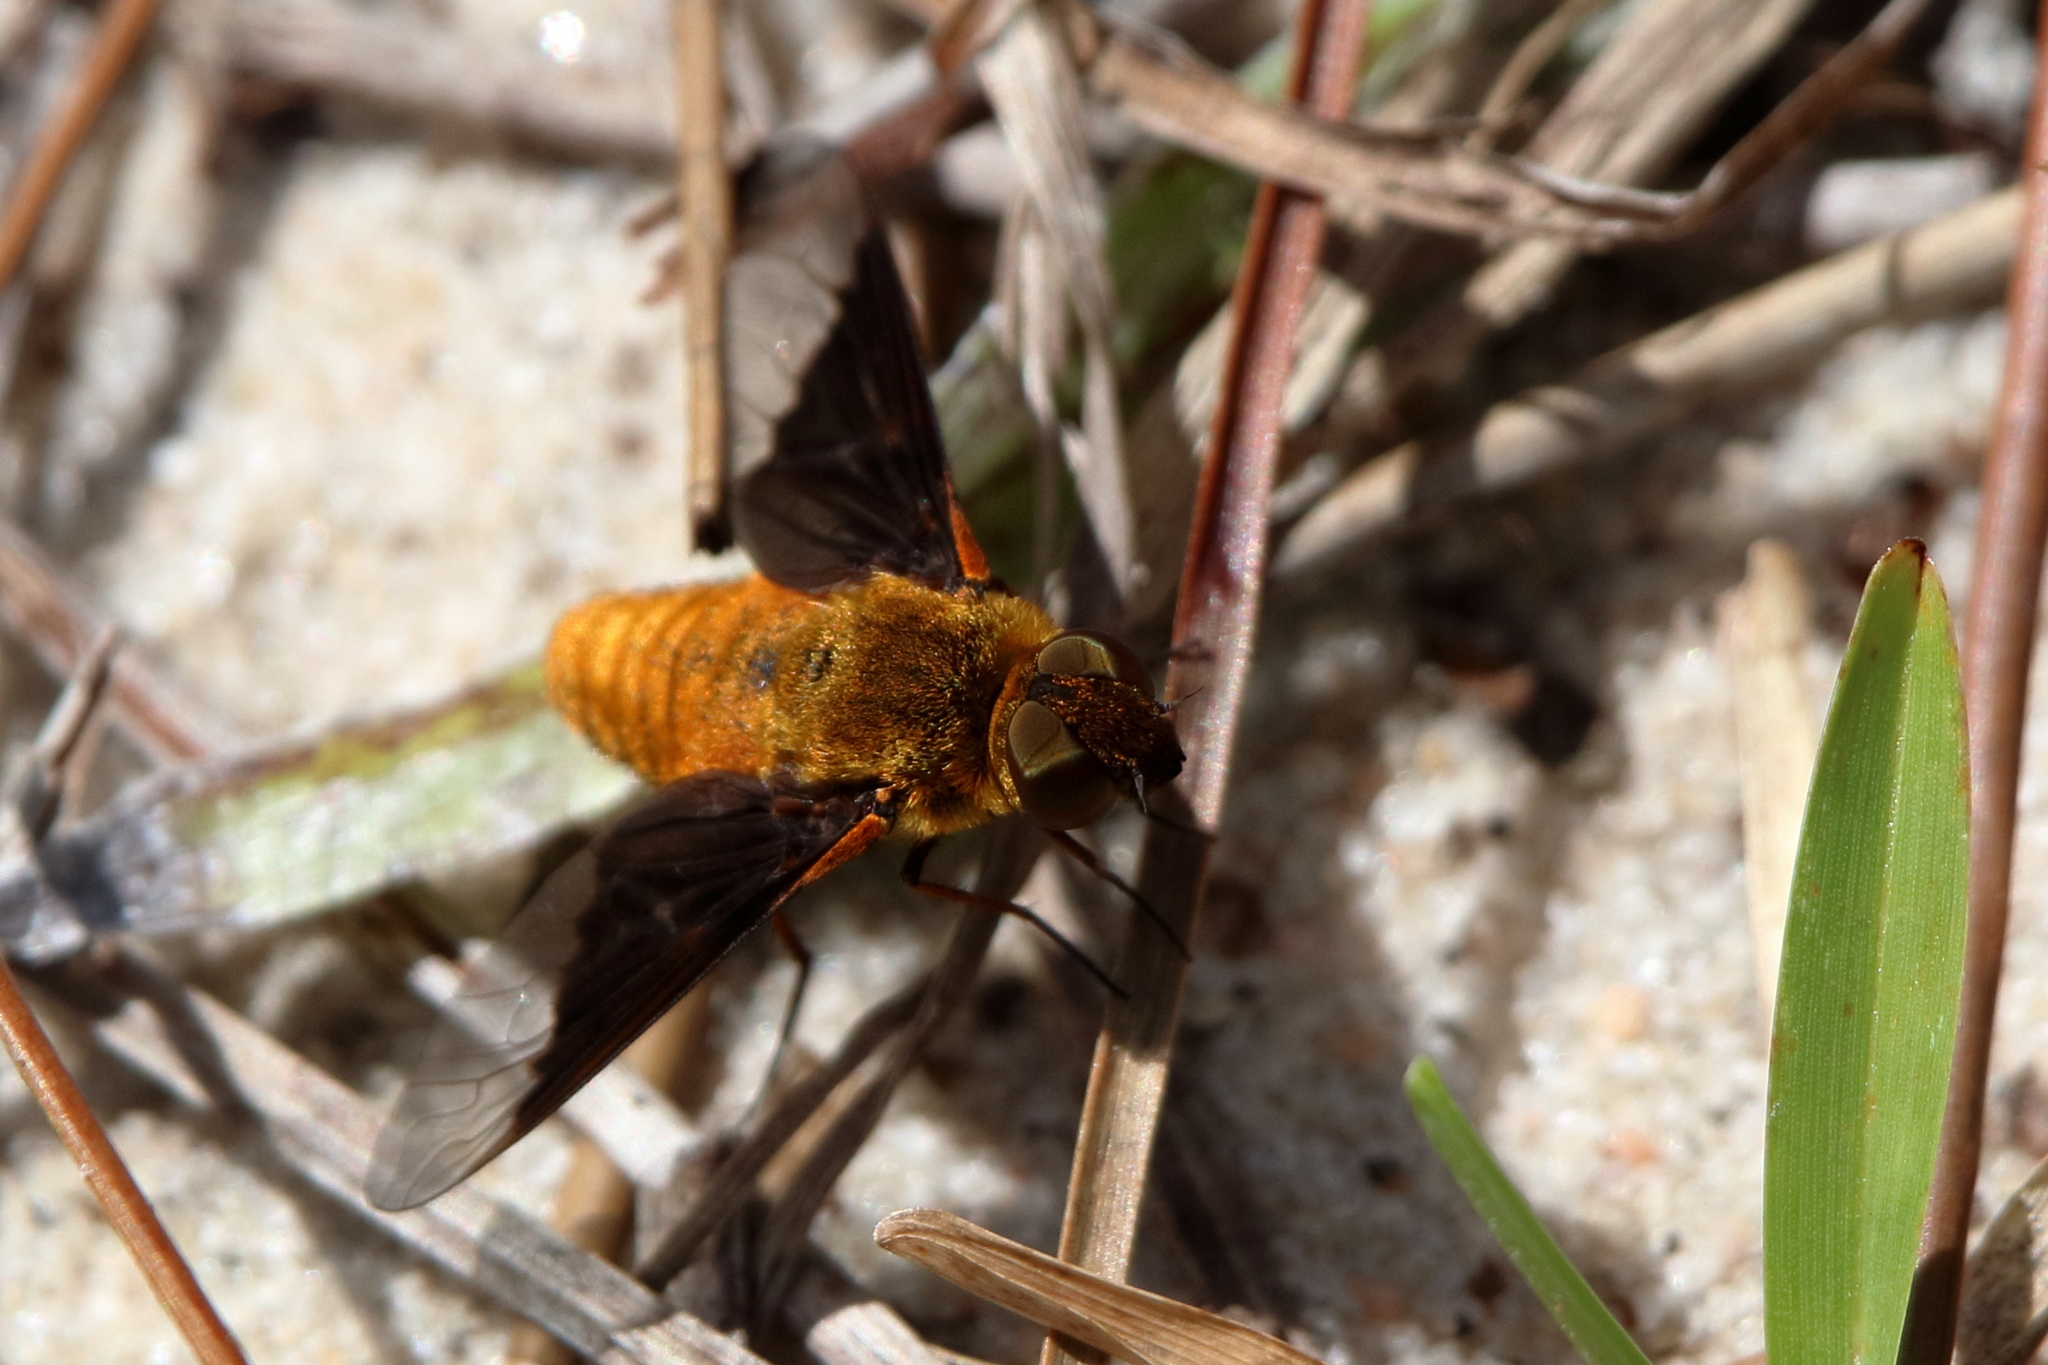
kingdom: Animalia
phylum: Arthropoda
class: Insecta
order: Diptera
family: Bombyliidae
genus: Chrysanthrax
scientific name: Chrysanthrax cypris
